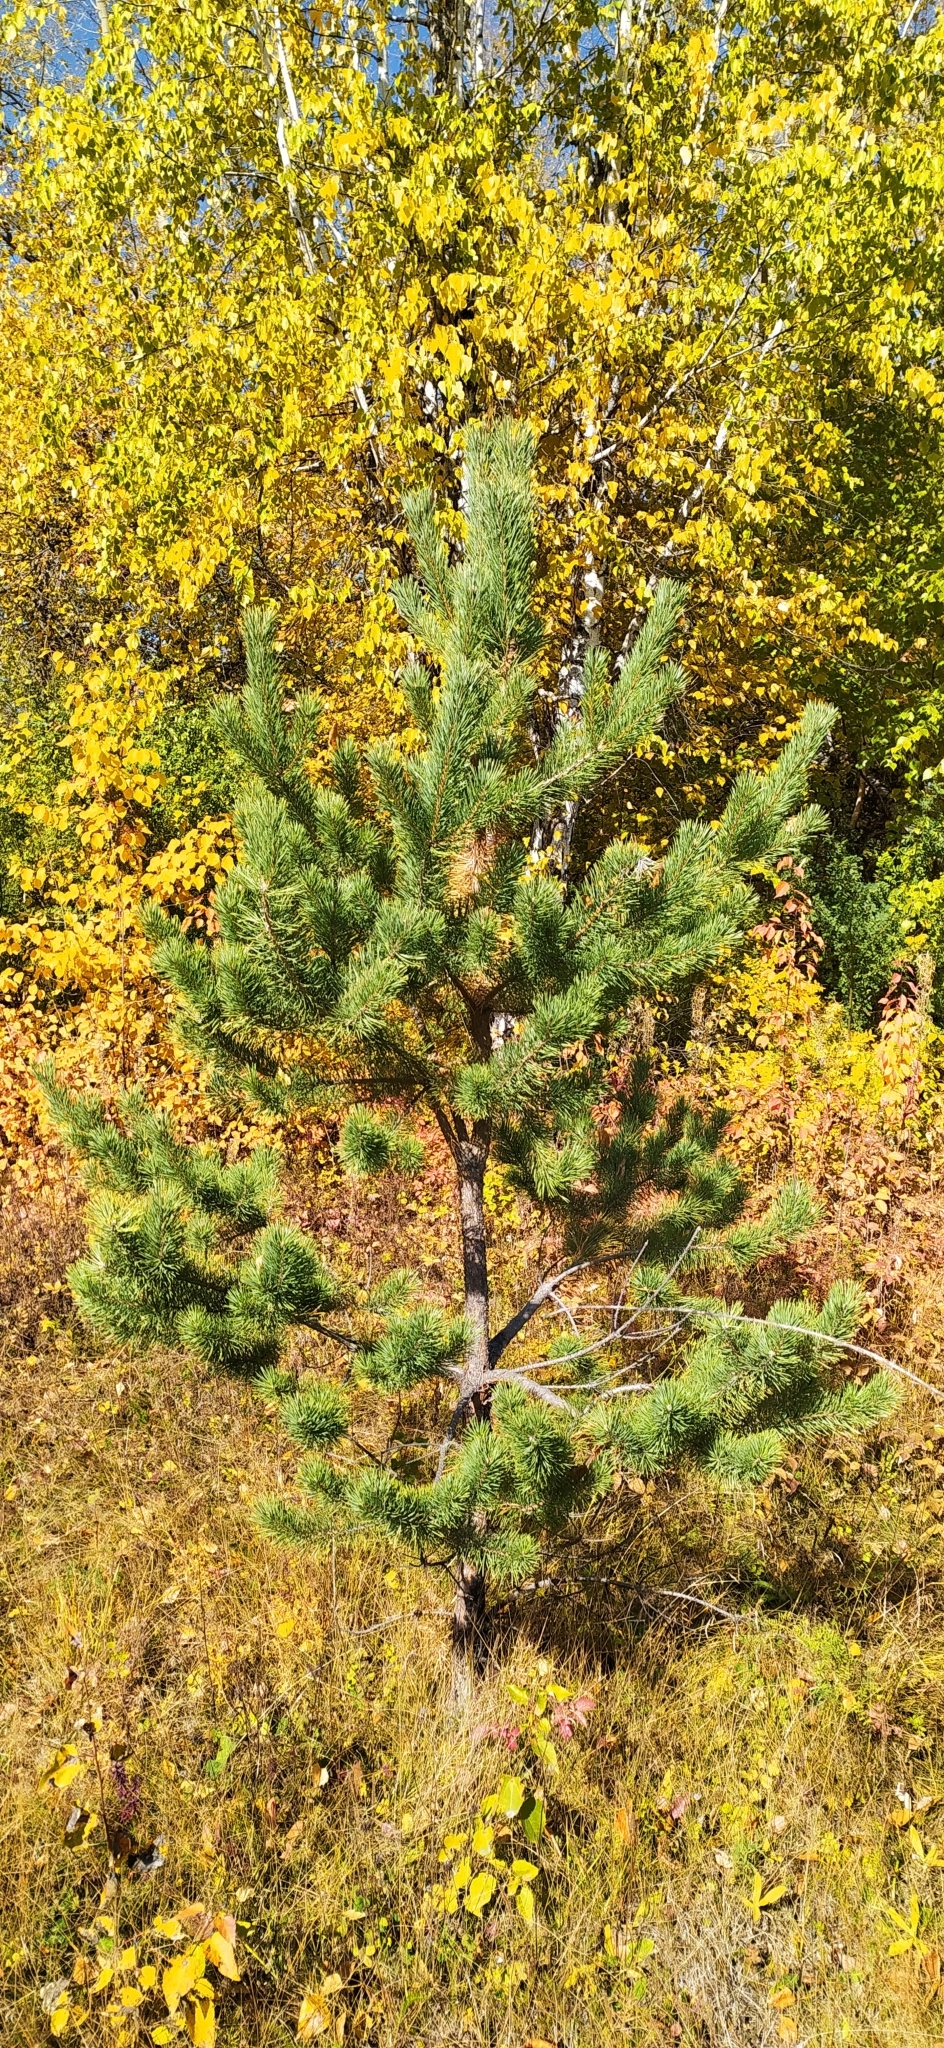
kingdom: Plantae
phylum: Tracheophyta
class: Pinopsida
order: Pinales
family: Pinaceae
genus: Pinus
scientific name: Pinus sylvestris
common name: Scots pine
